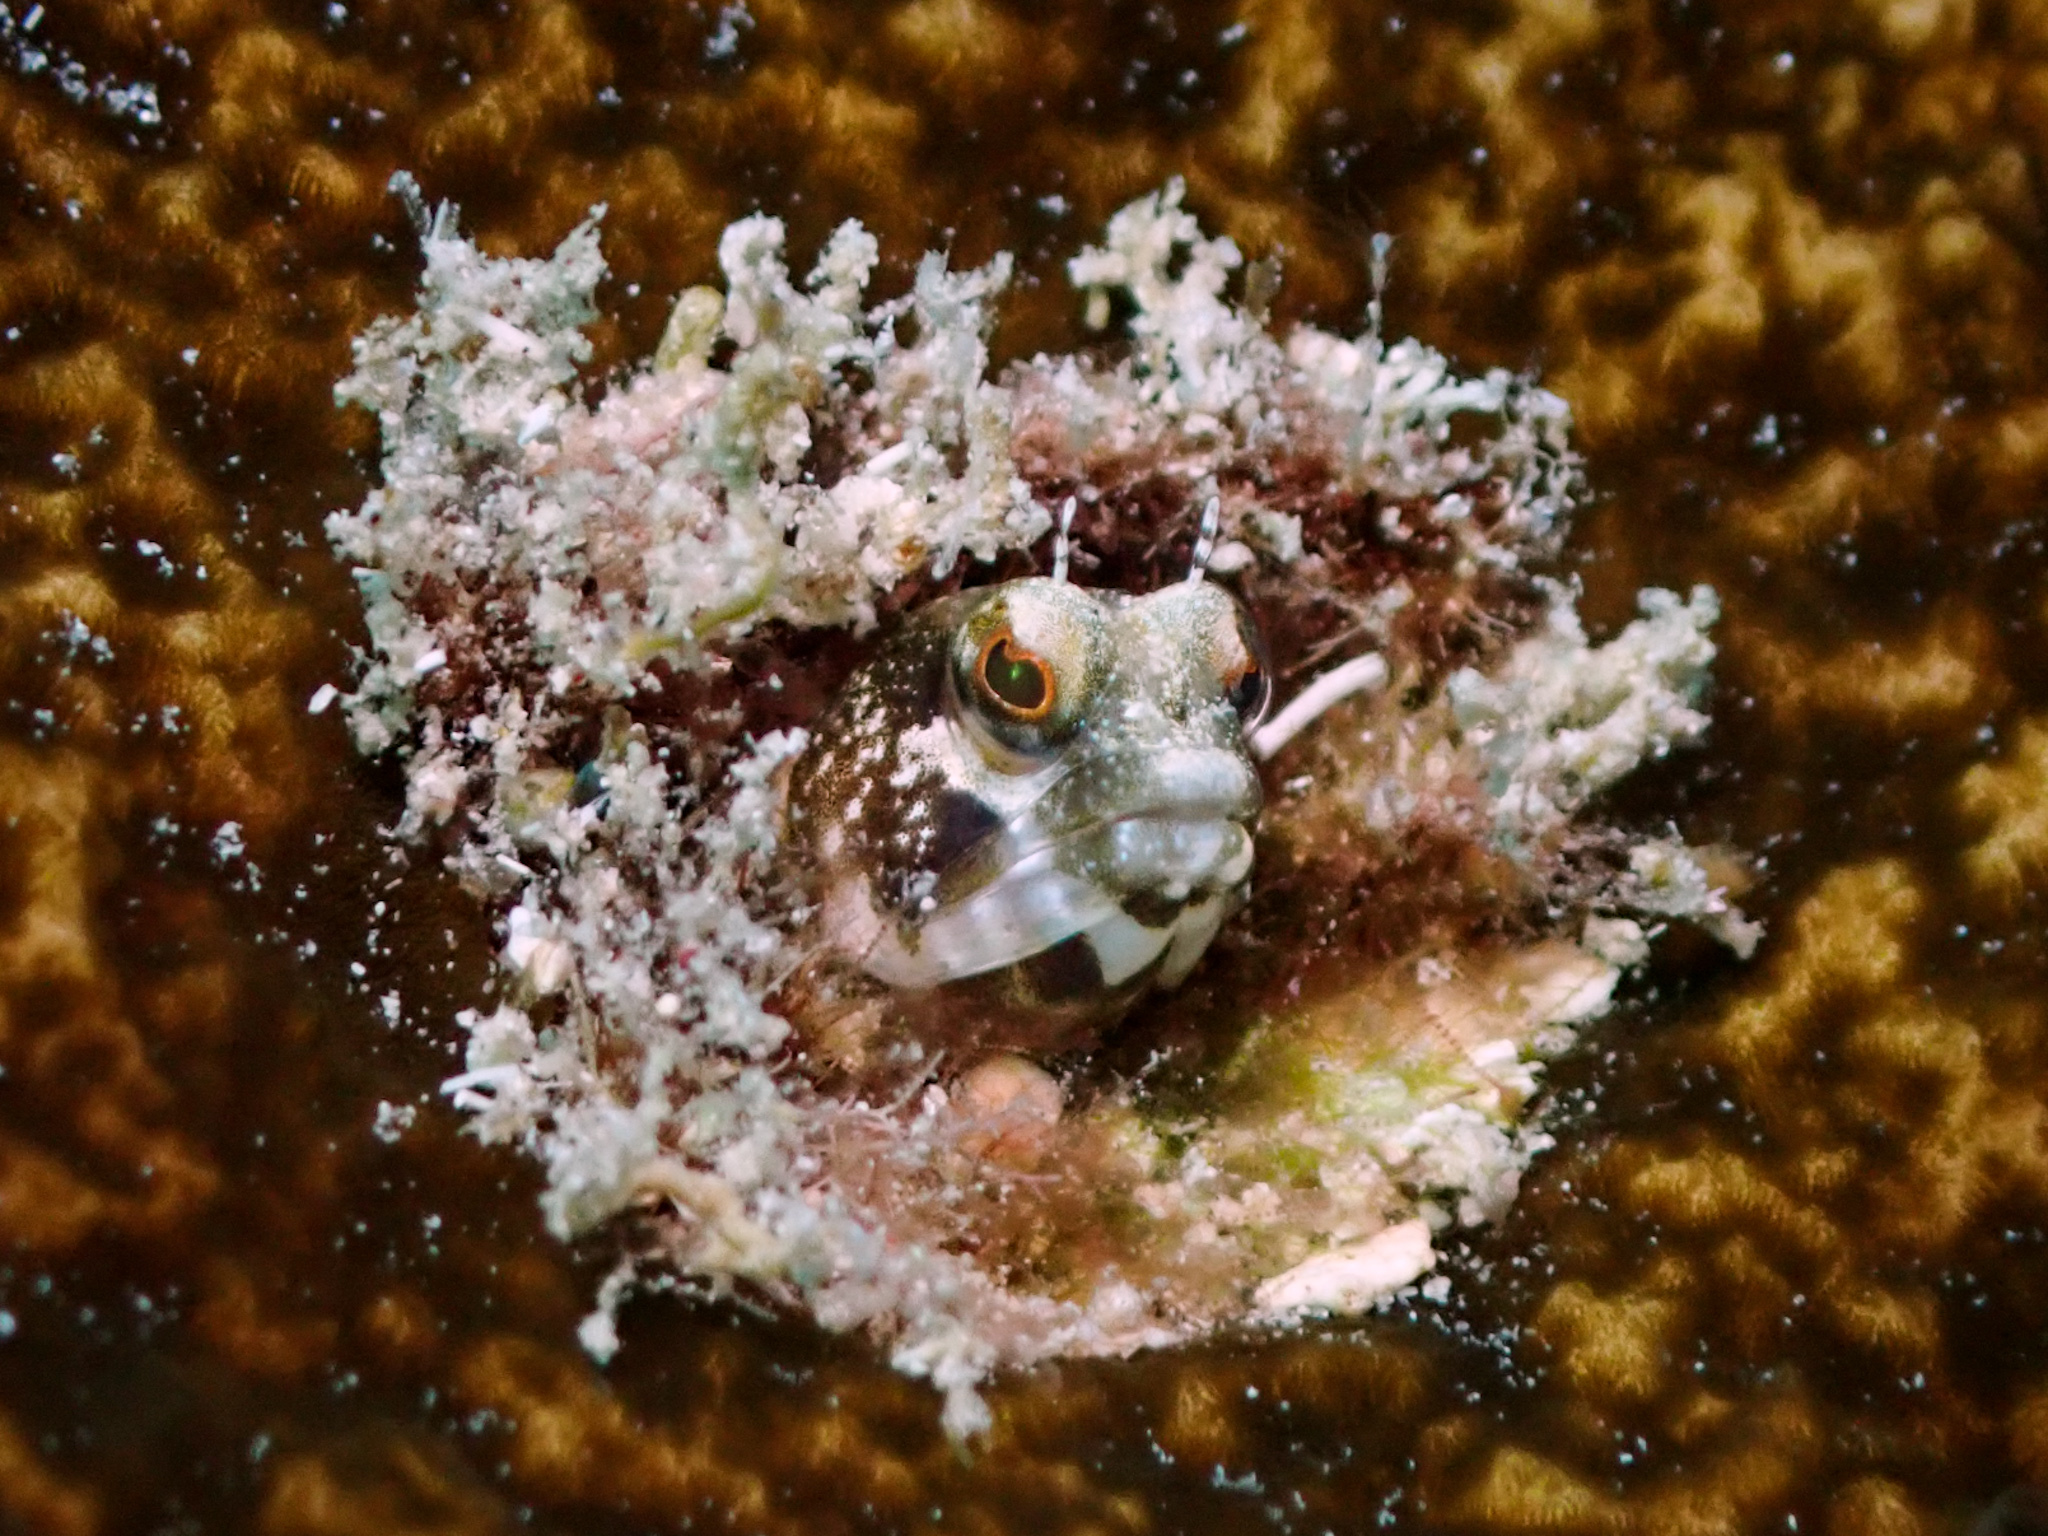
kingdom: Animalia
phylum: Chordata
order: Perciformes
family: Chaenopsidae
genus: Emblemaria
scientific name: Emblemaria pandionis
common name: Sailfin blenny
